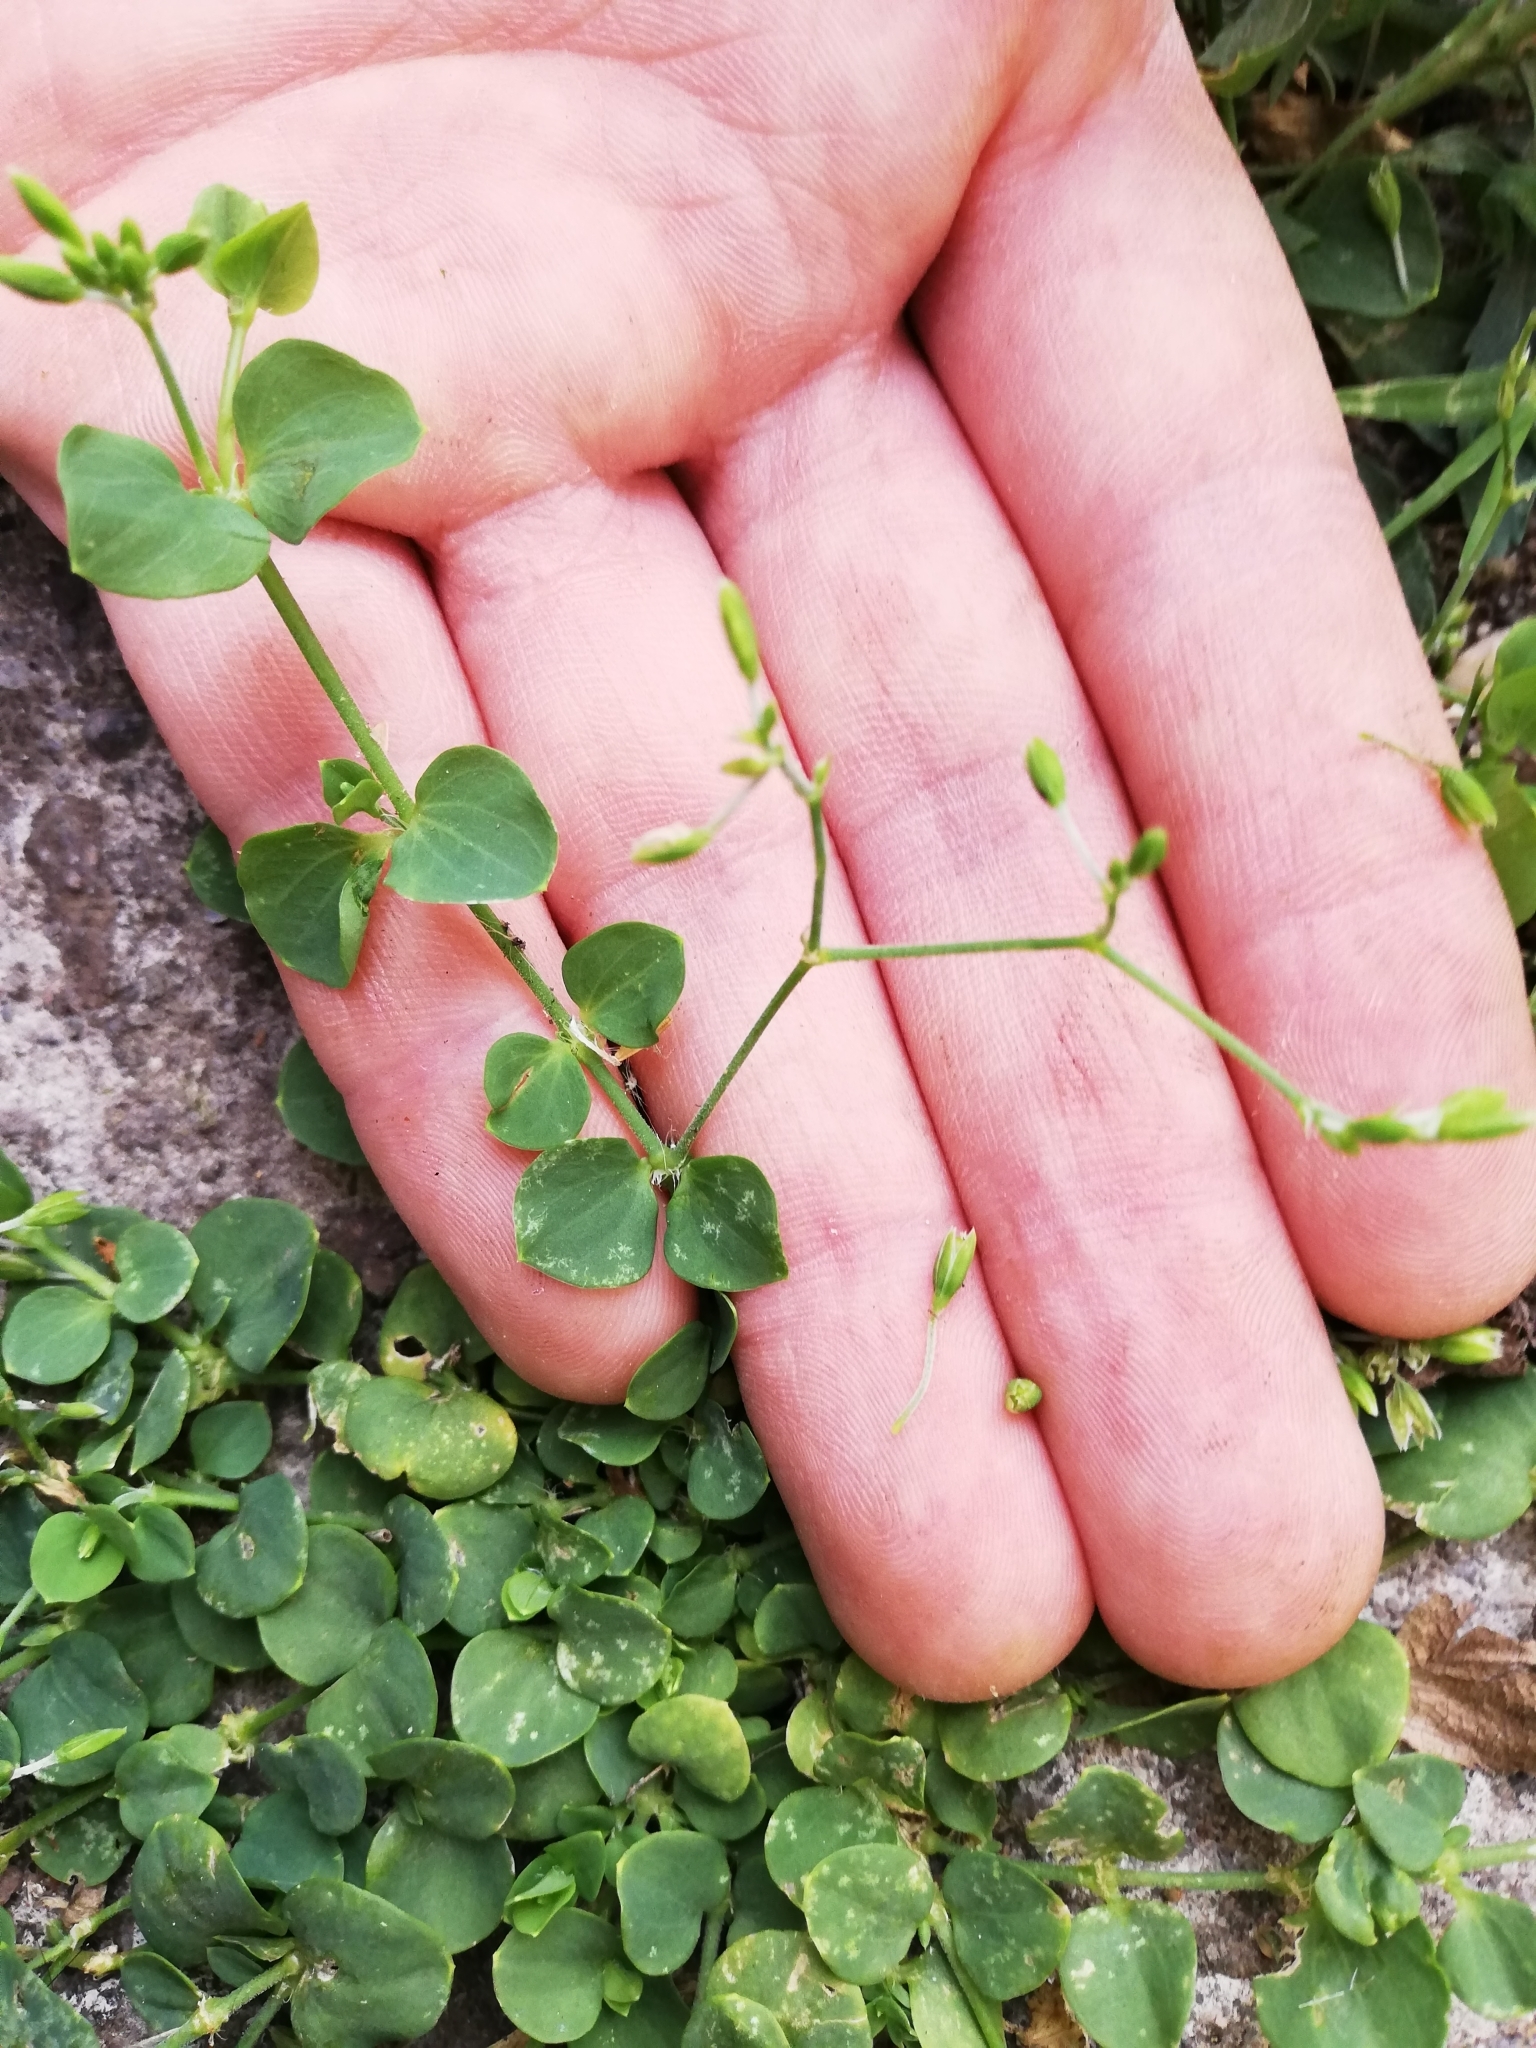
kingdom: Plantae
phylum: Tracheophyta
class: Magnoliopsida
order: Caryophyllales
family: Caryophyllaceae
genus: Drymaria
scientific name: Drymaria cordata
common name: Whitesnow
